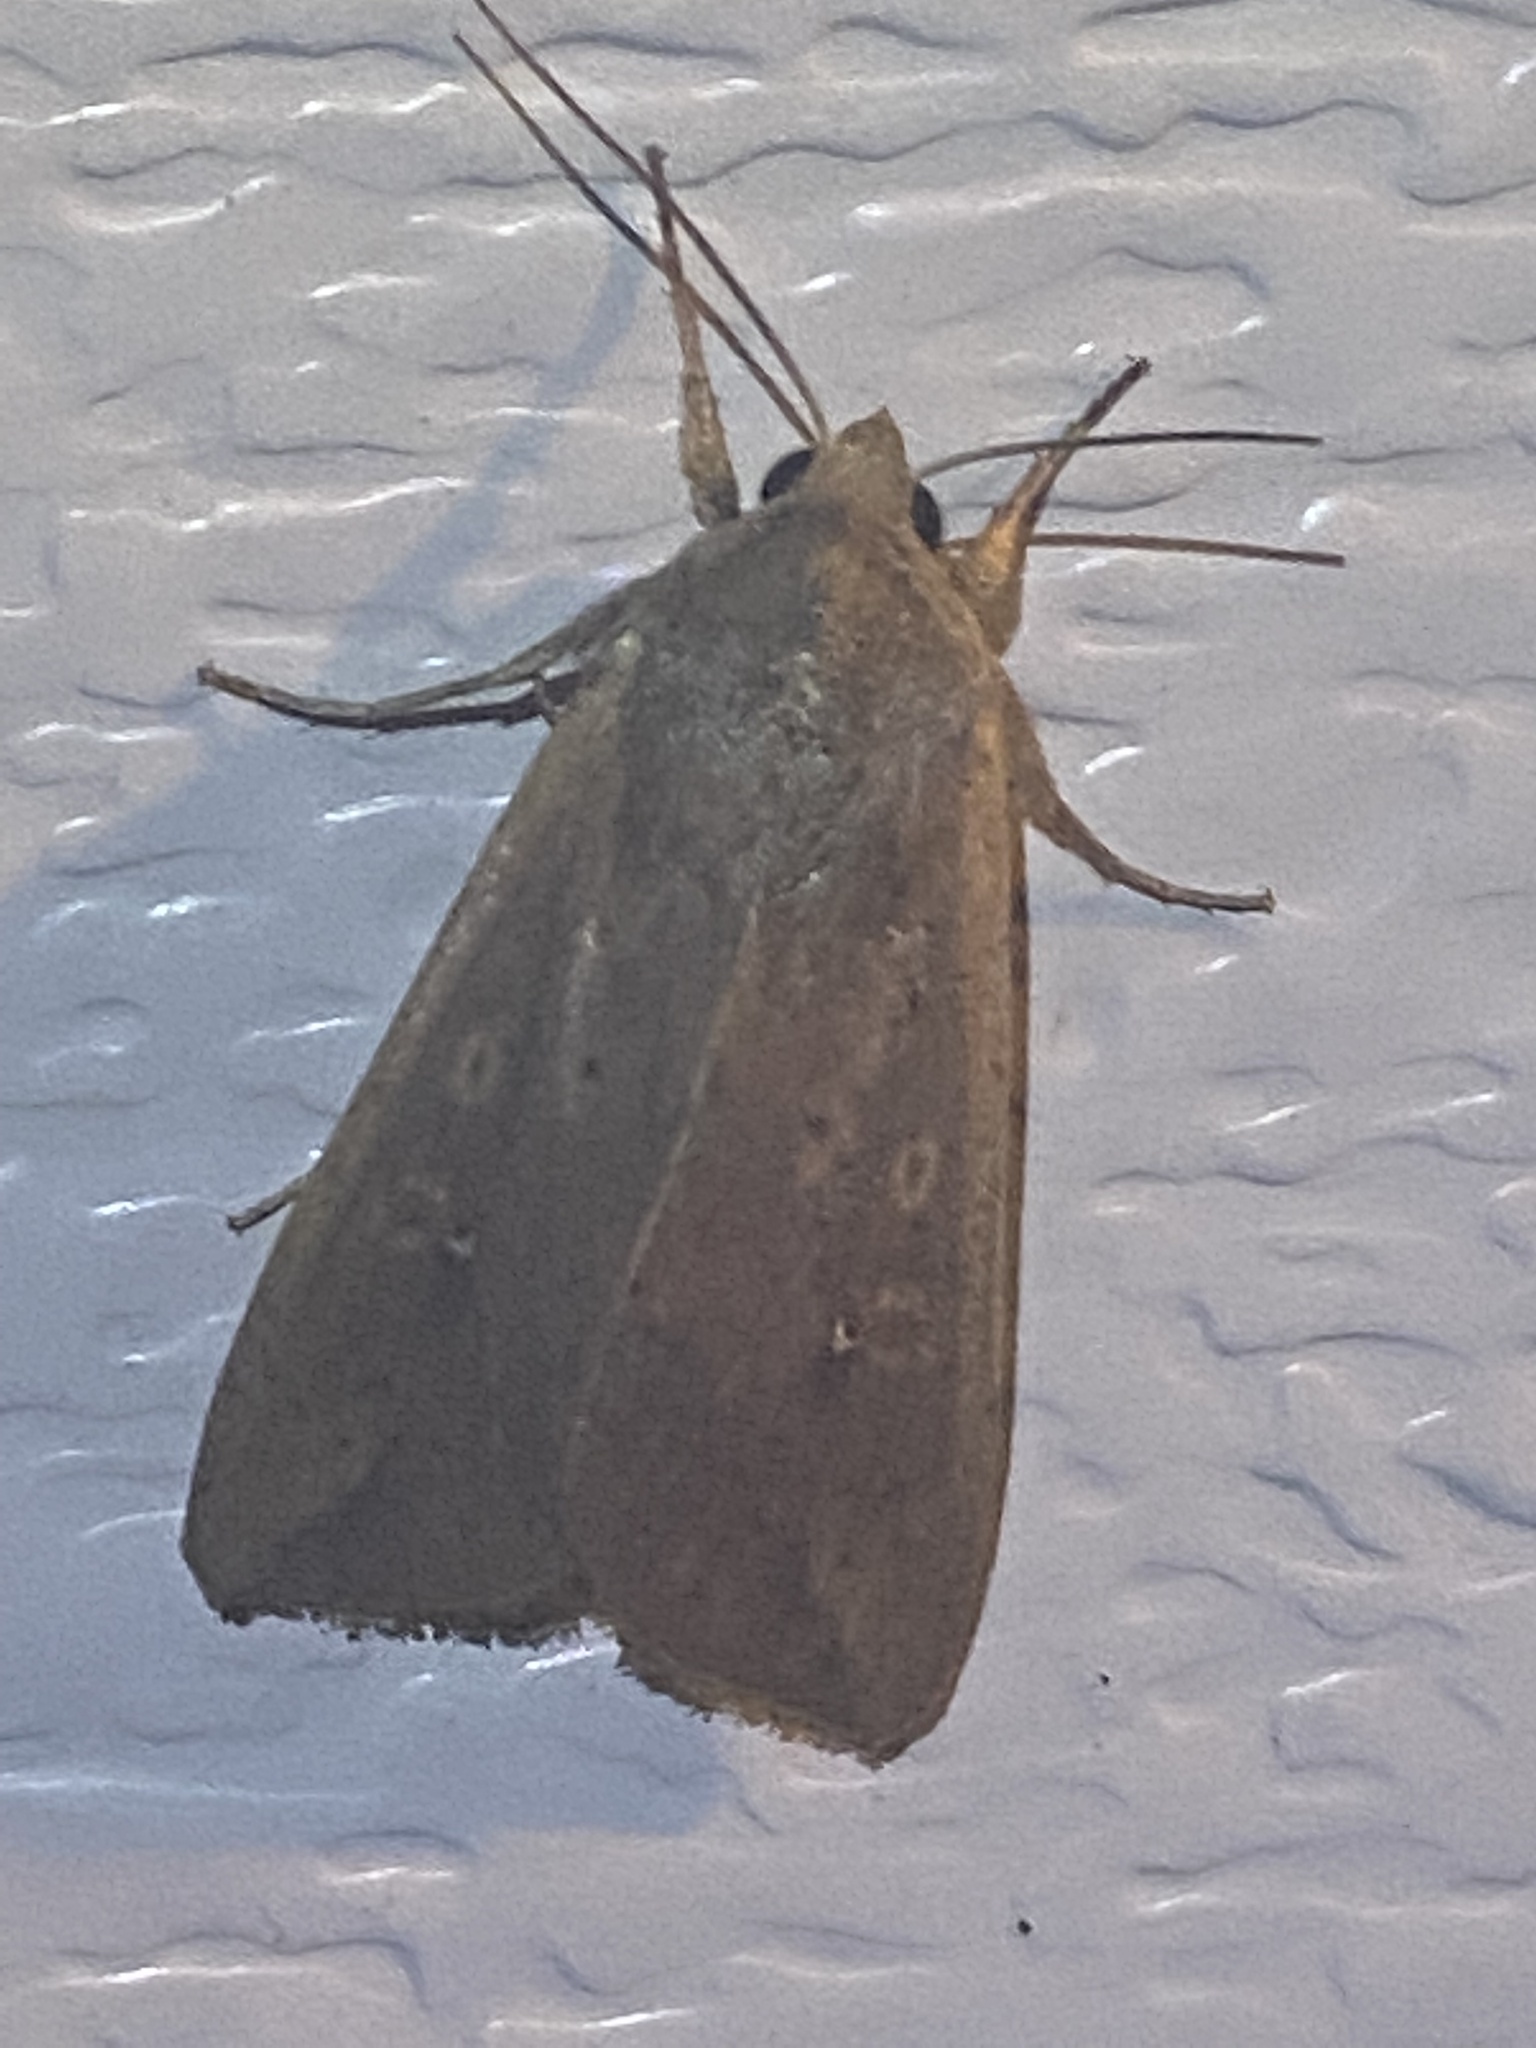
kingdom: Animalia
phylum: Arthropoda
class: Insecta
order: Lepidoptera
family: Noctuidae
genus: Mythimna
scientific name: Mythimna unipuncta
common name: White-speck
